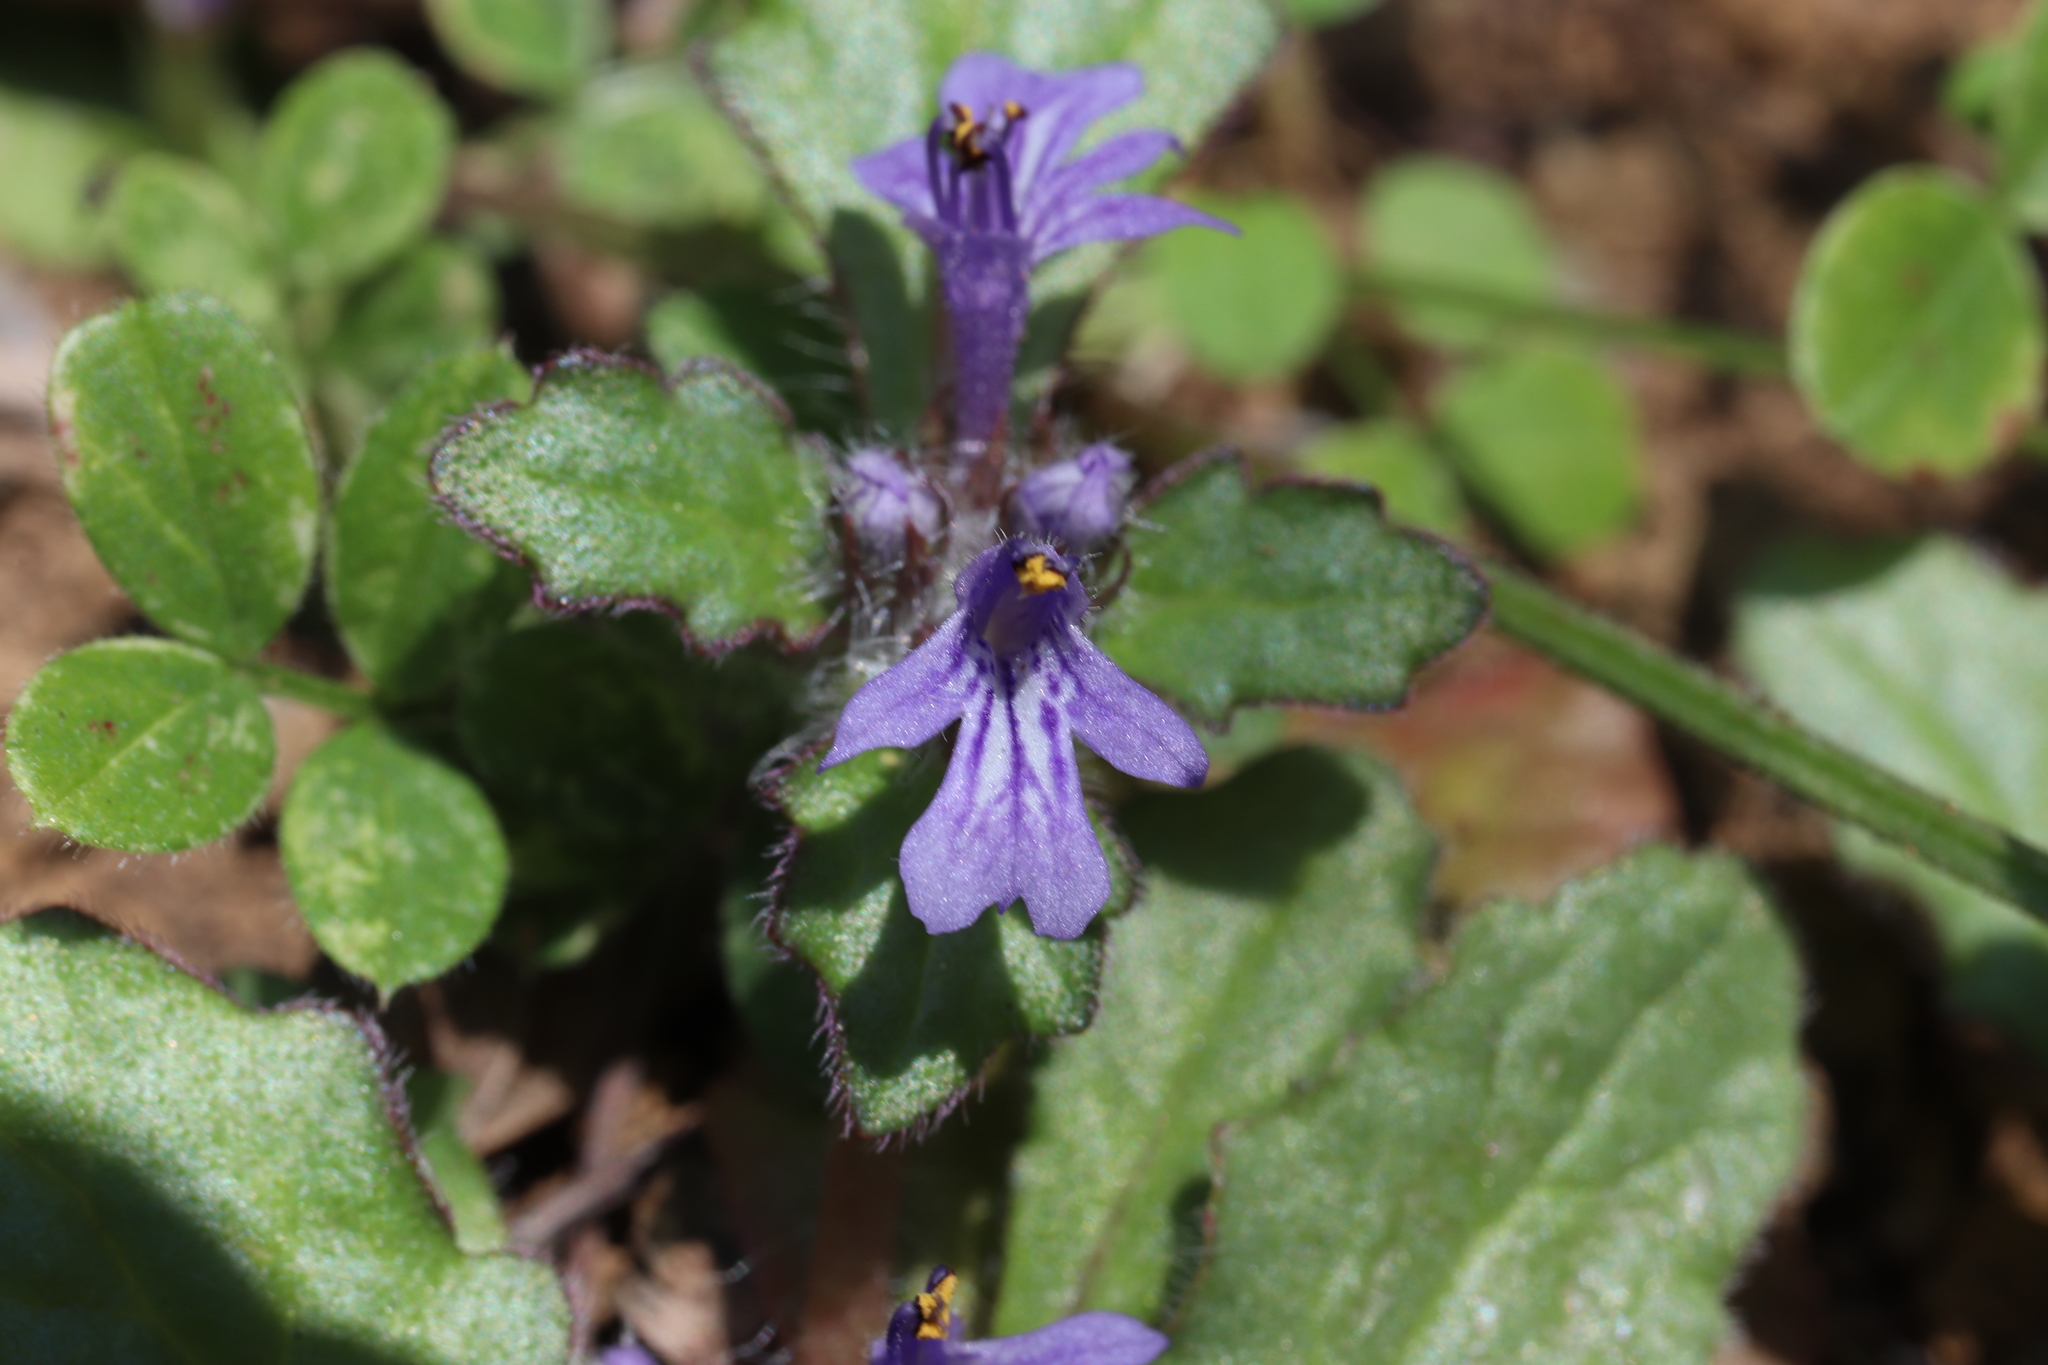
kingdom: Plantae
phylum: Tracheophyta
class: Magnoliopsida
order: Lamiales
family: Lamiaceae
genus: Ajuga
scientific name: Ajuga decumbens
